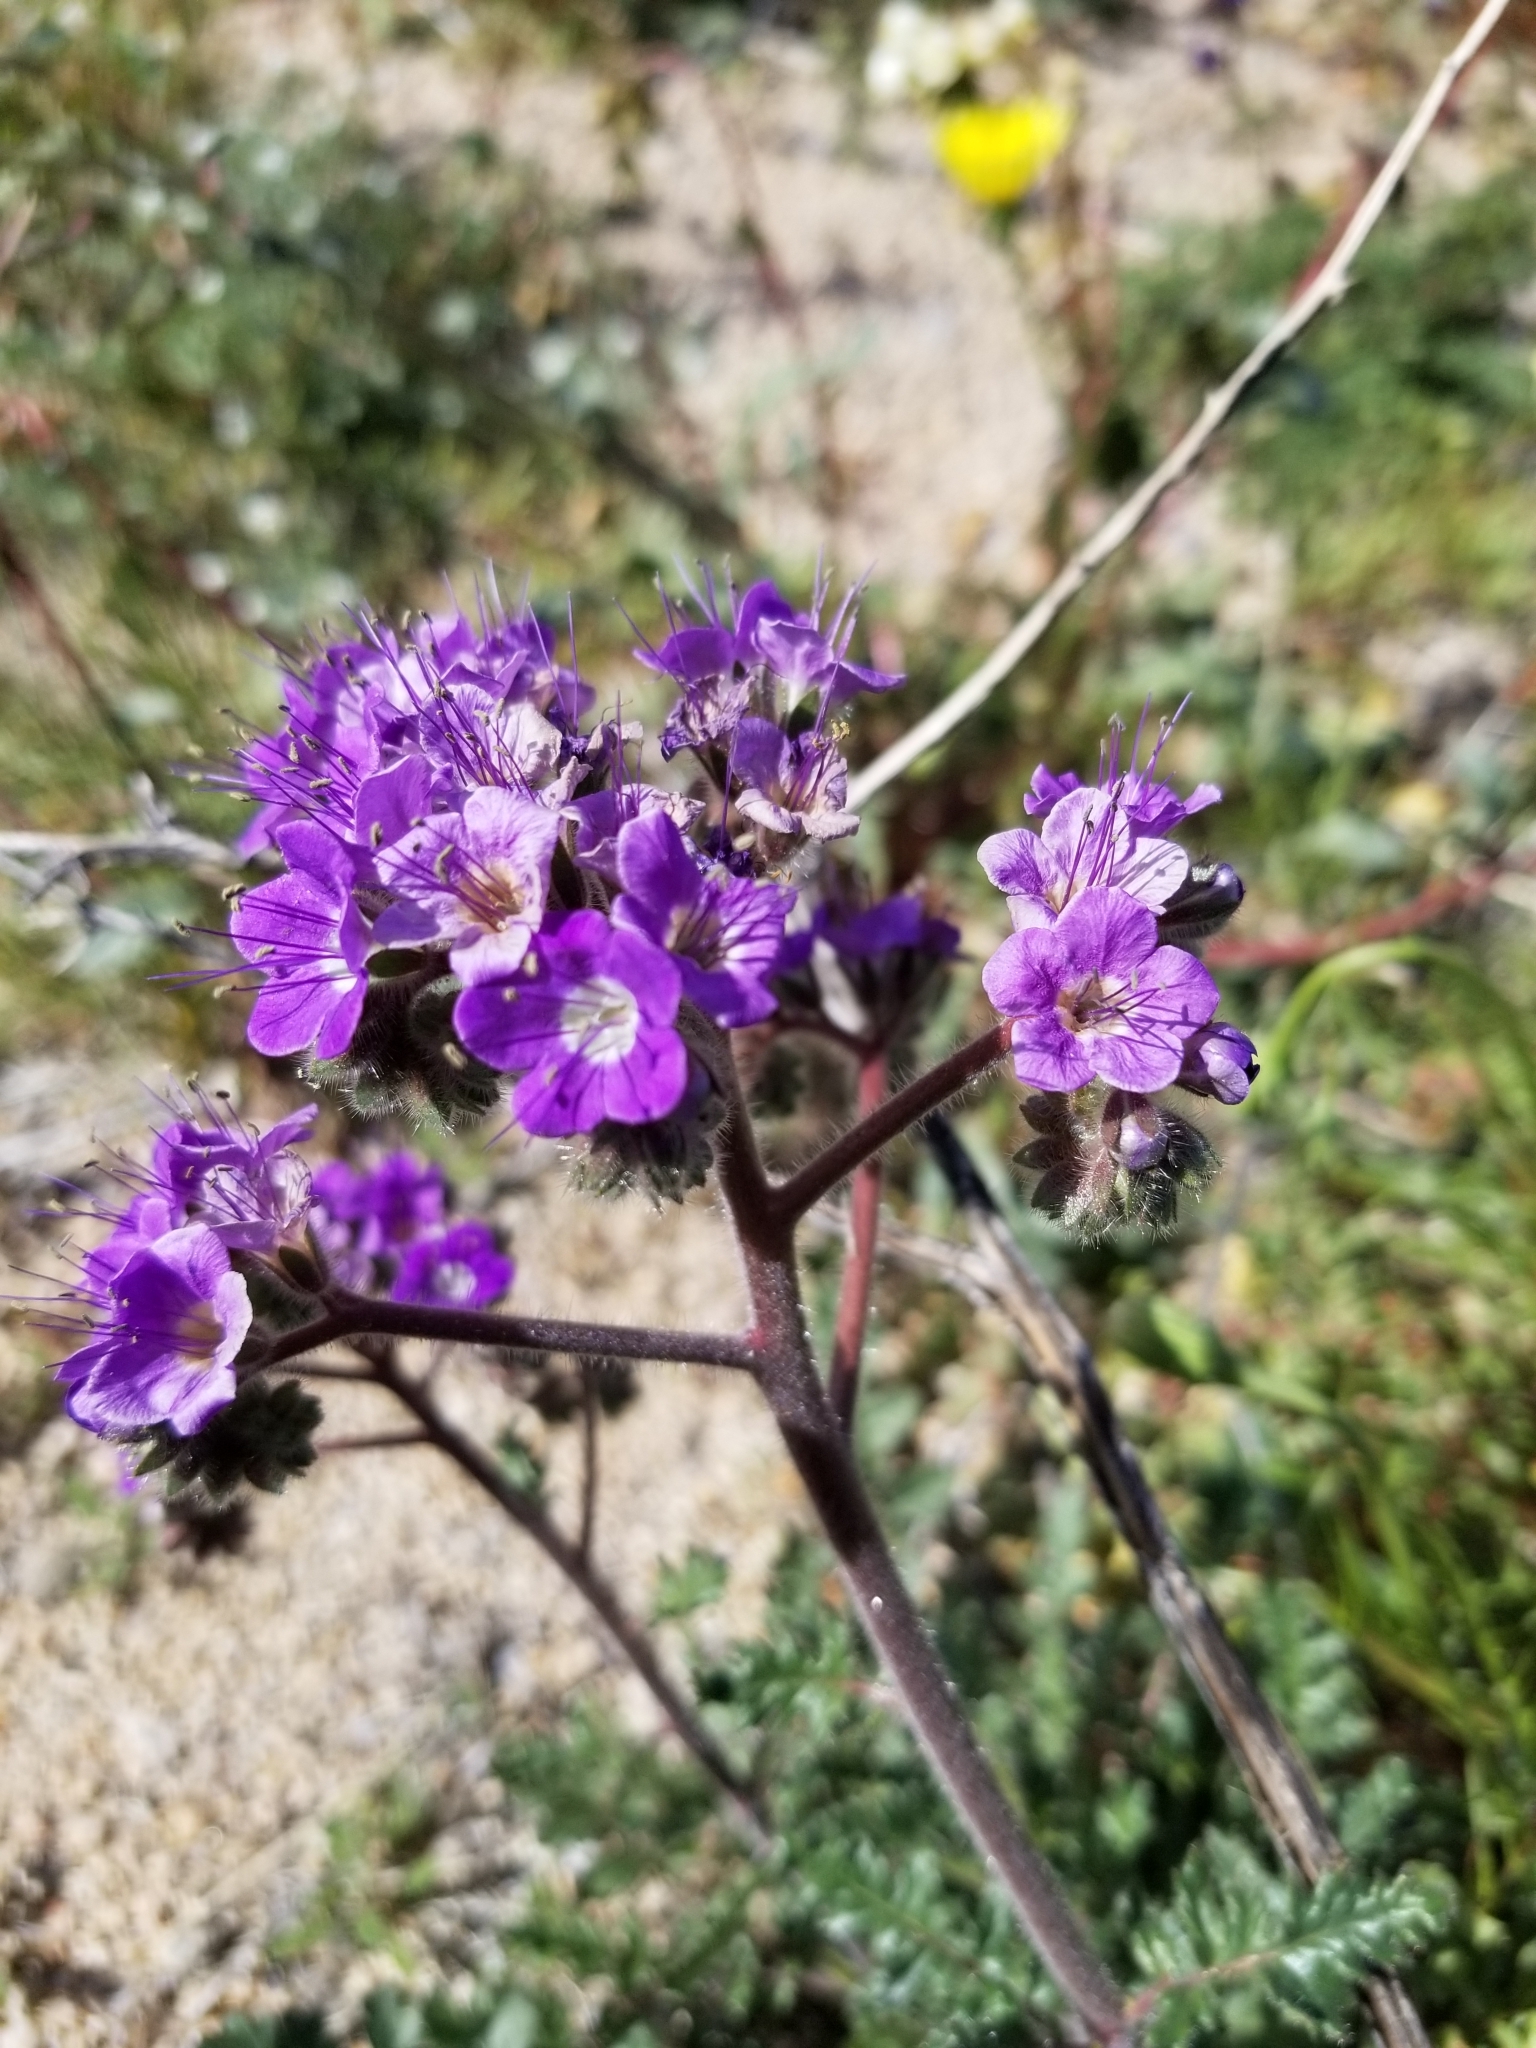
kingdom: Plantae
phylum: Tracheophyta
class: Magnoliopsida
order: Boraginales
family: Hydrophyllaceae
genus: Phacelia
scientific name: Phacelia crenulata
